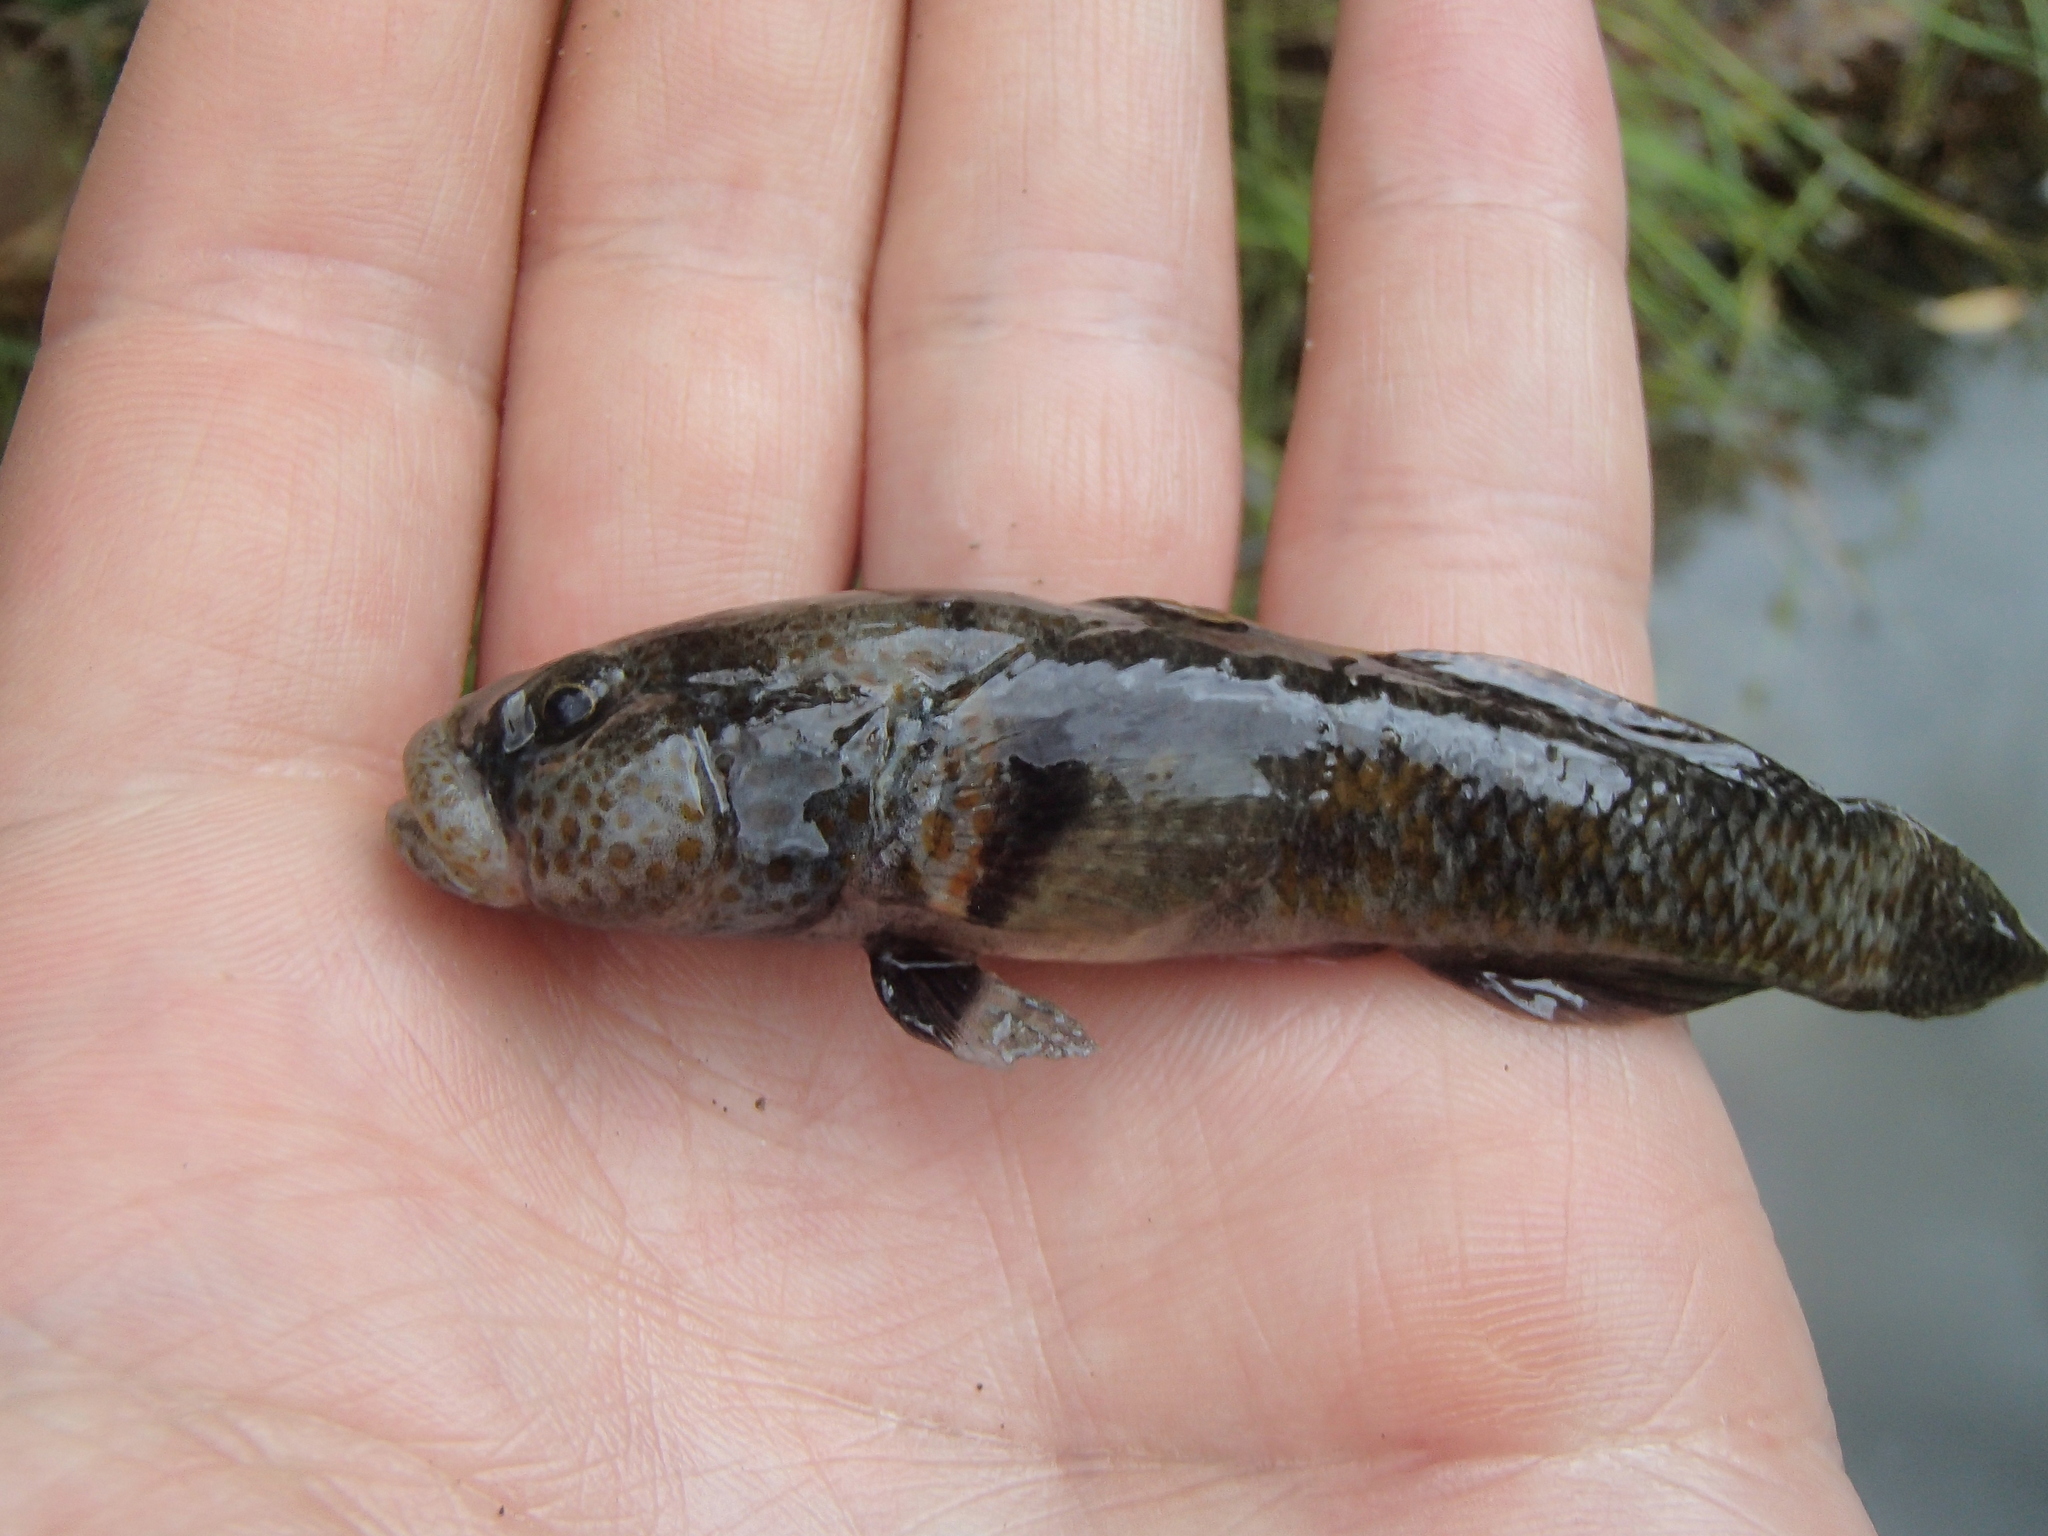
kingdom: Animalia
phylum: Chordata
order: Perciformes
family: Eleotridae
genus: Gobiomorphus
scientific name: Gobiomorphus breviceps
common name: Upland bully
